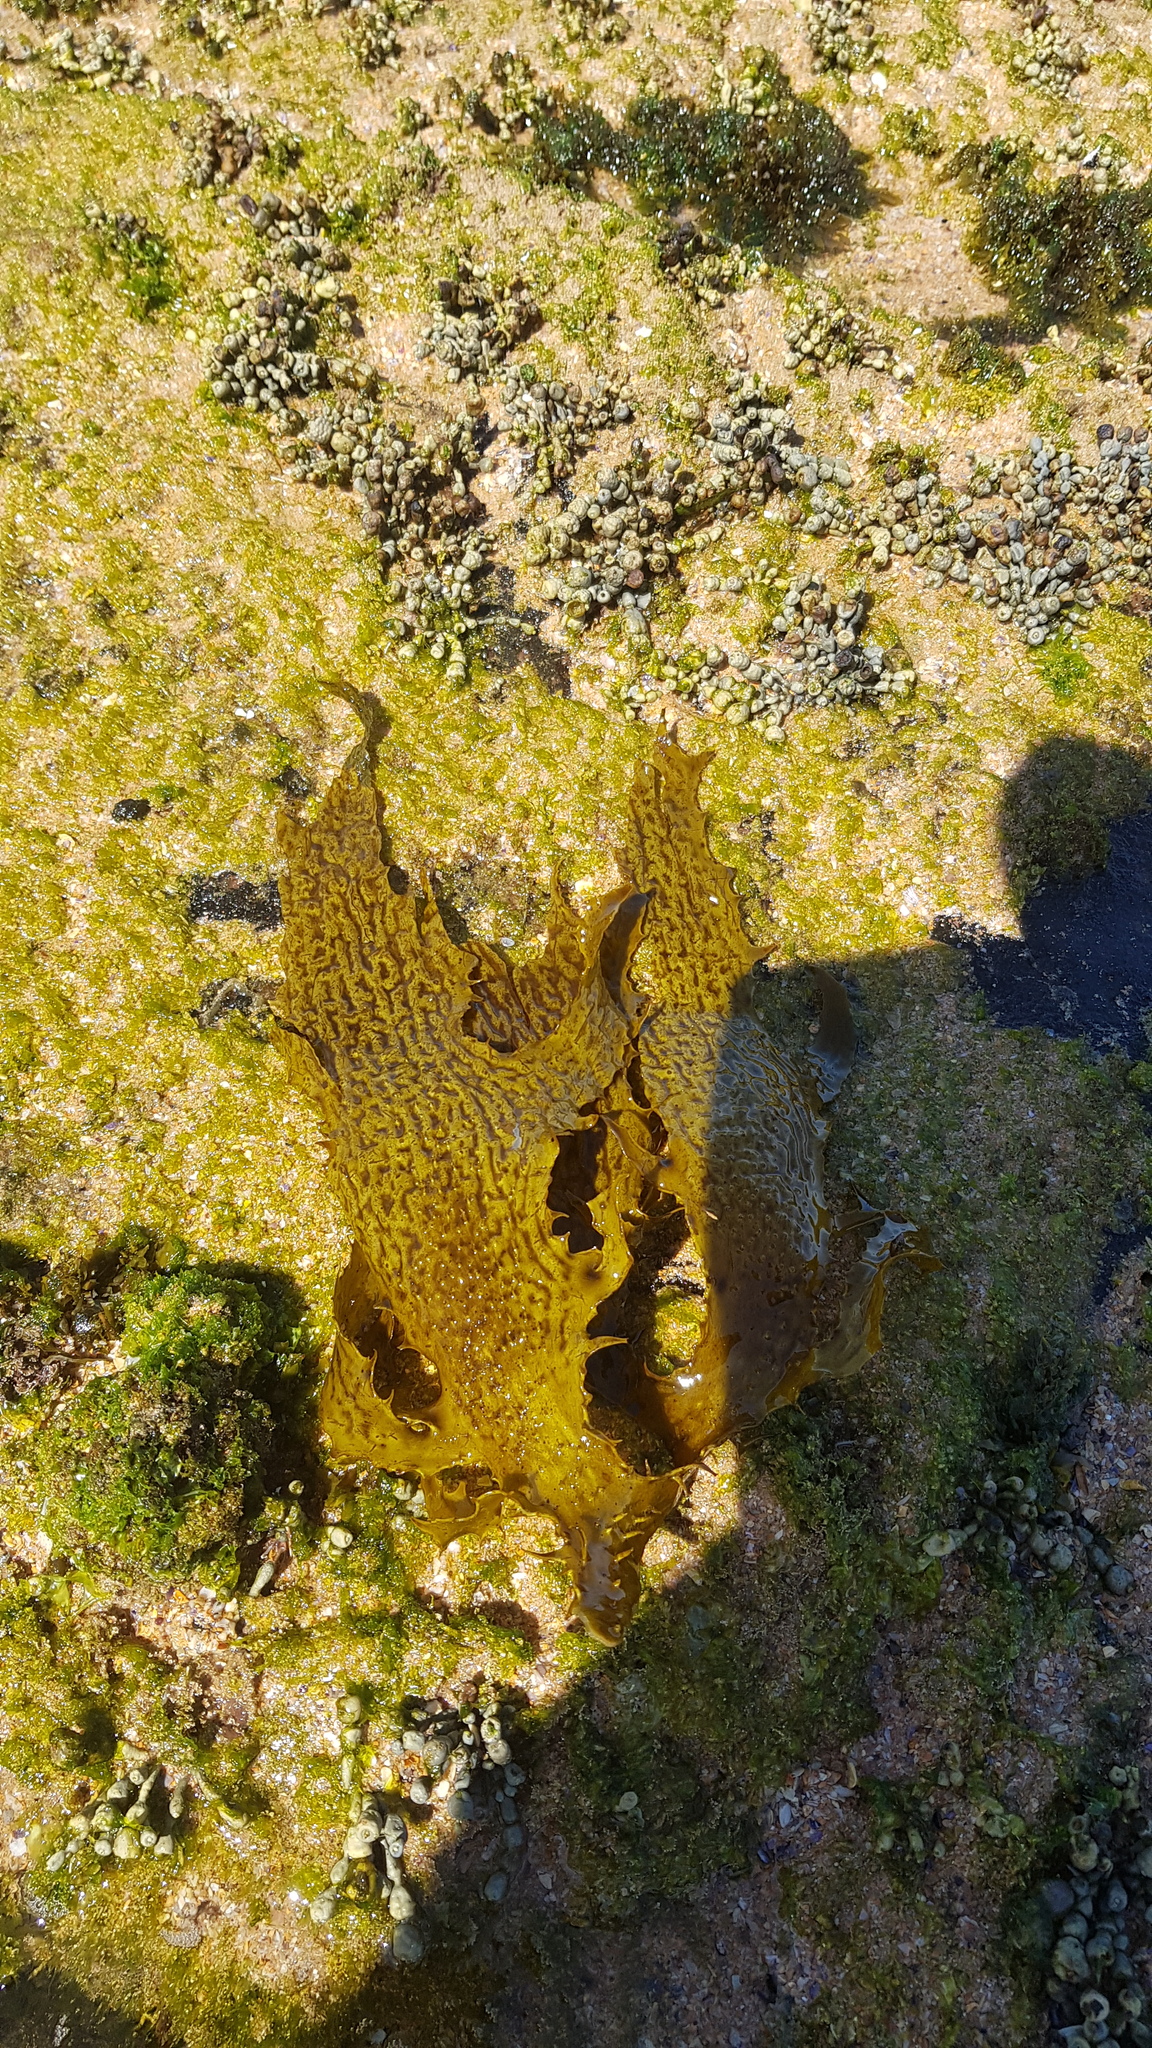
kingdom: Chromista
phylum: Ochrophyta
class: Phaeophyceae
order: Laminariales
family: Lessoniaceae
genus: Ecklonia
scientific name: Ecklonia radiata
